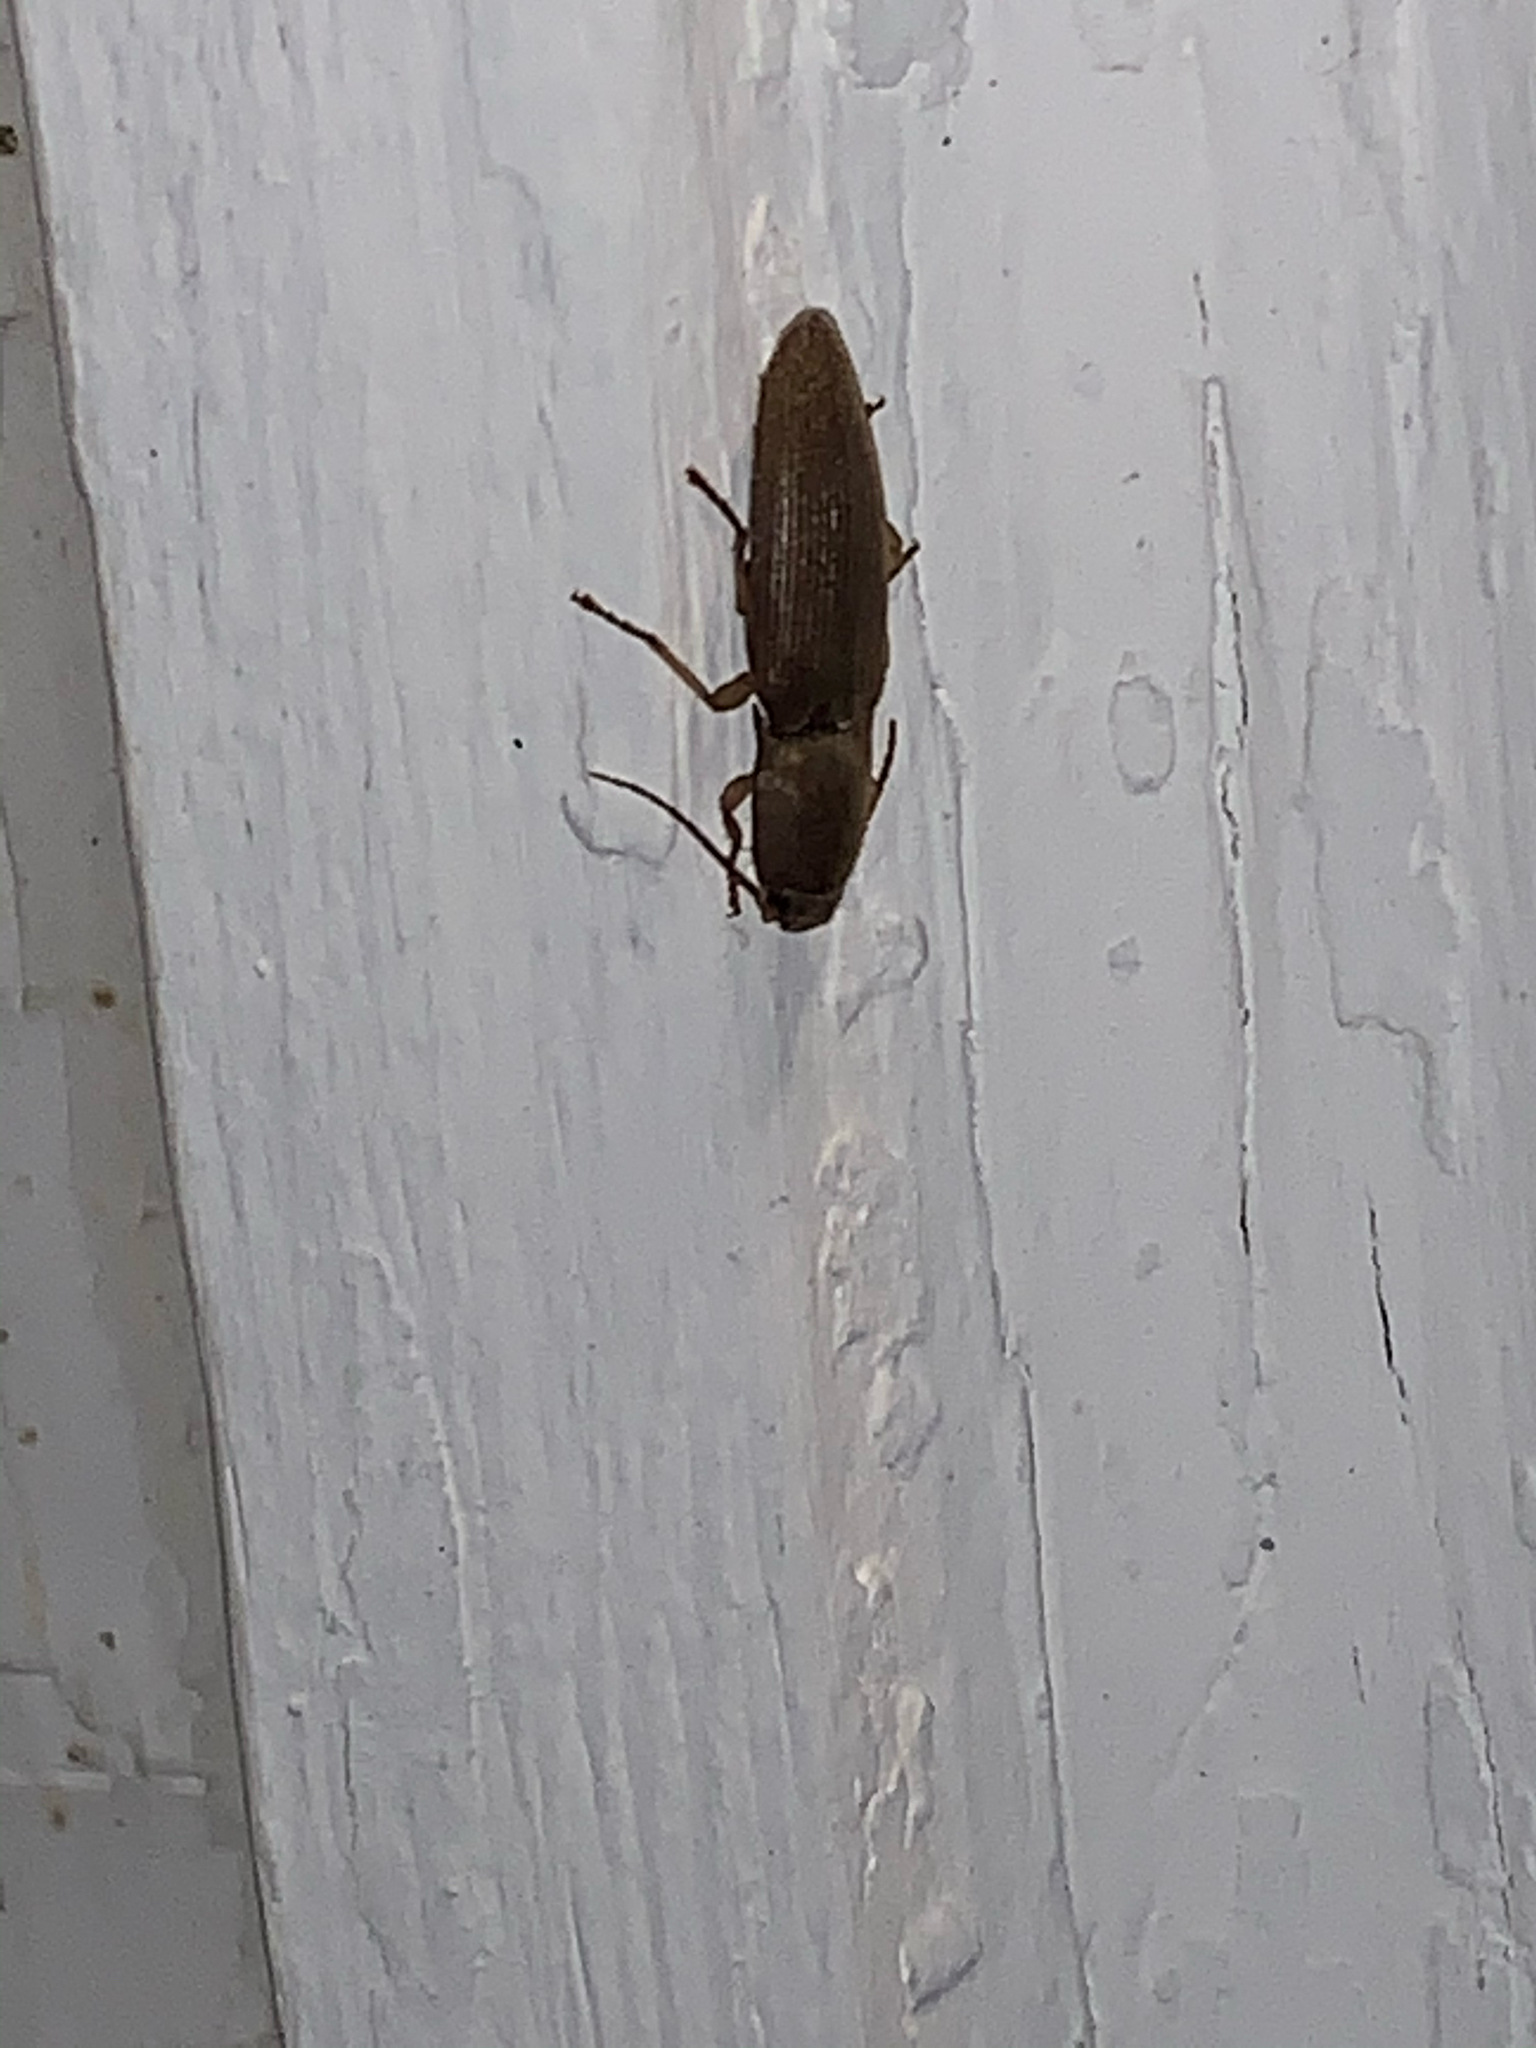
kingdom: Animalia
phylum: Arthropoda
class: Insecta
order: Coleoptera
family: Elateridae
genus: Monocrepidius
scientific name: Monocrepidius lividus
